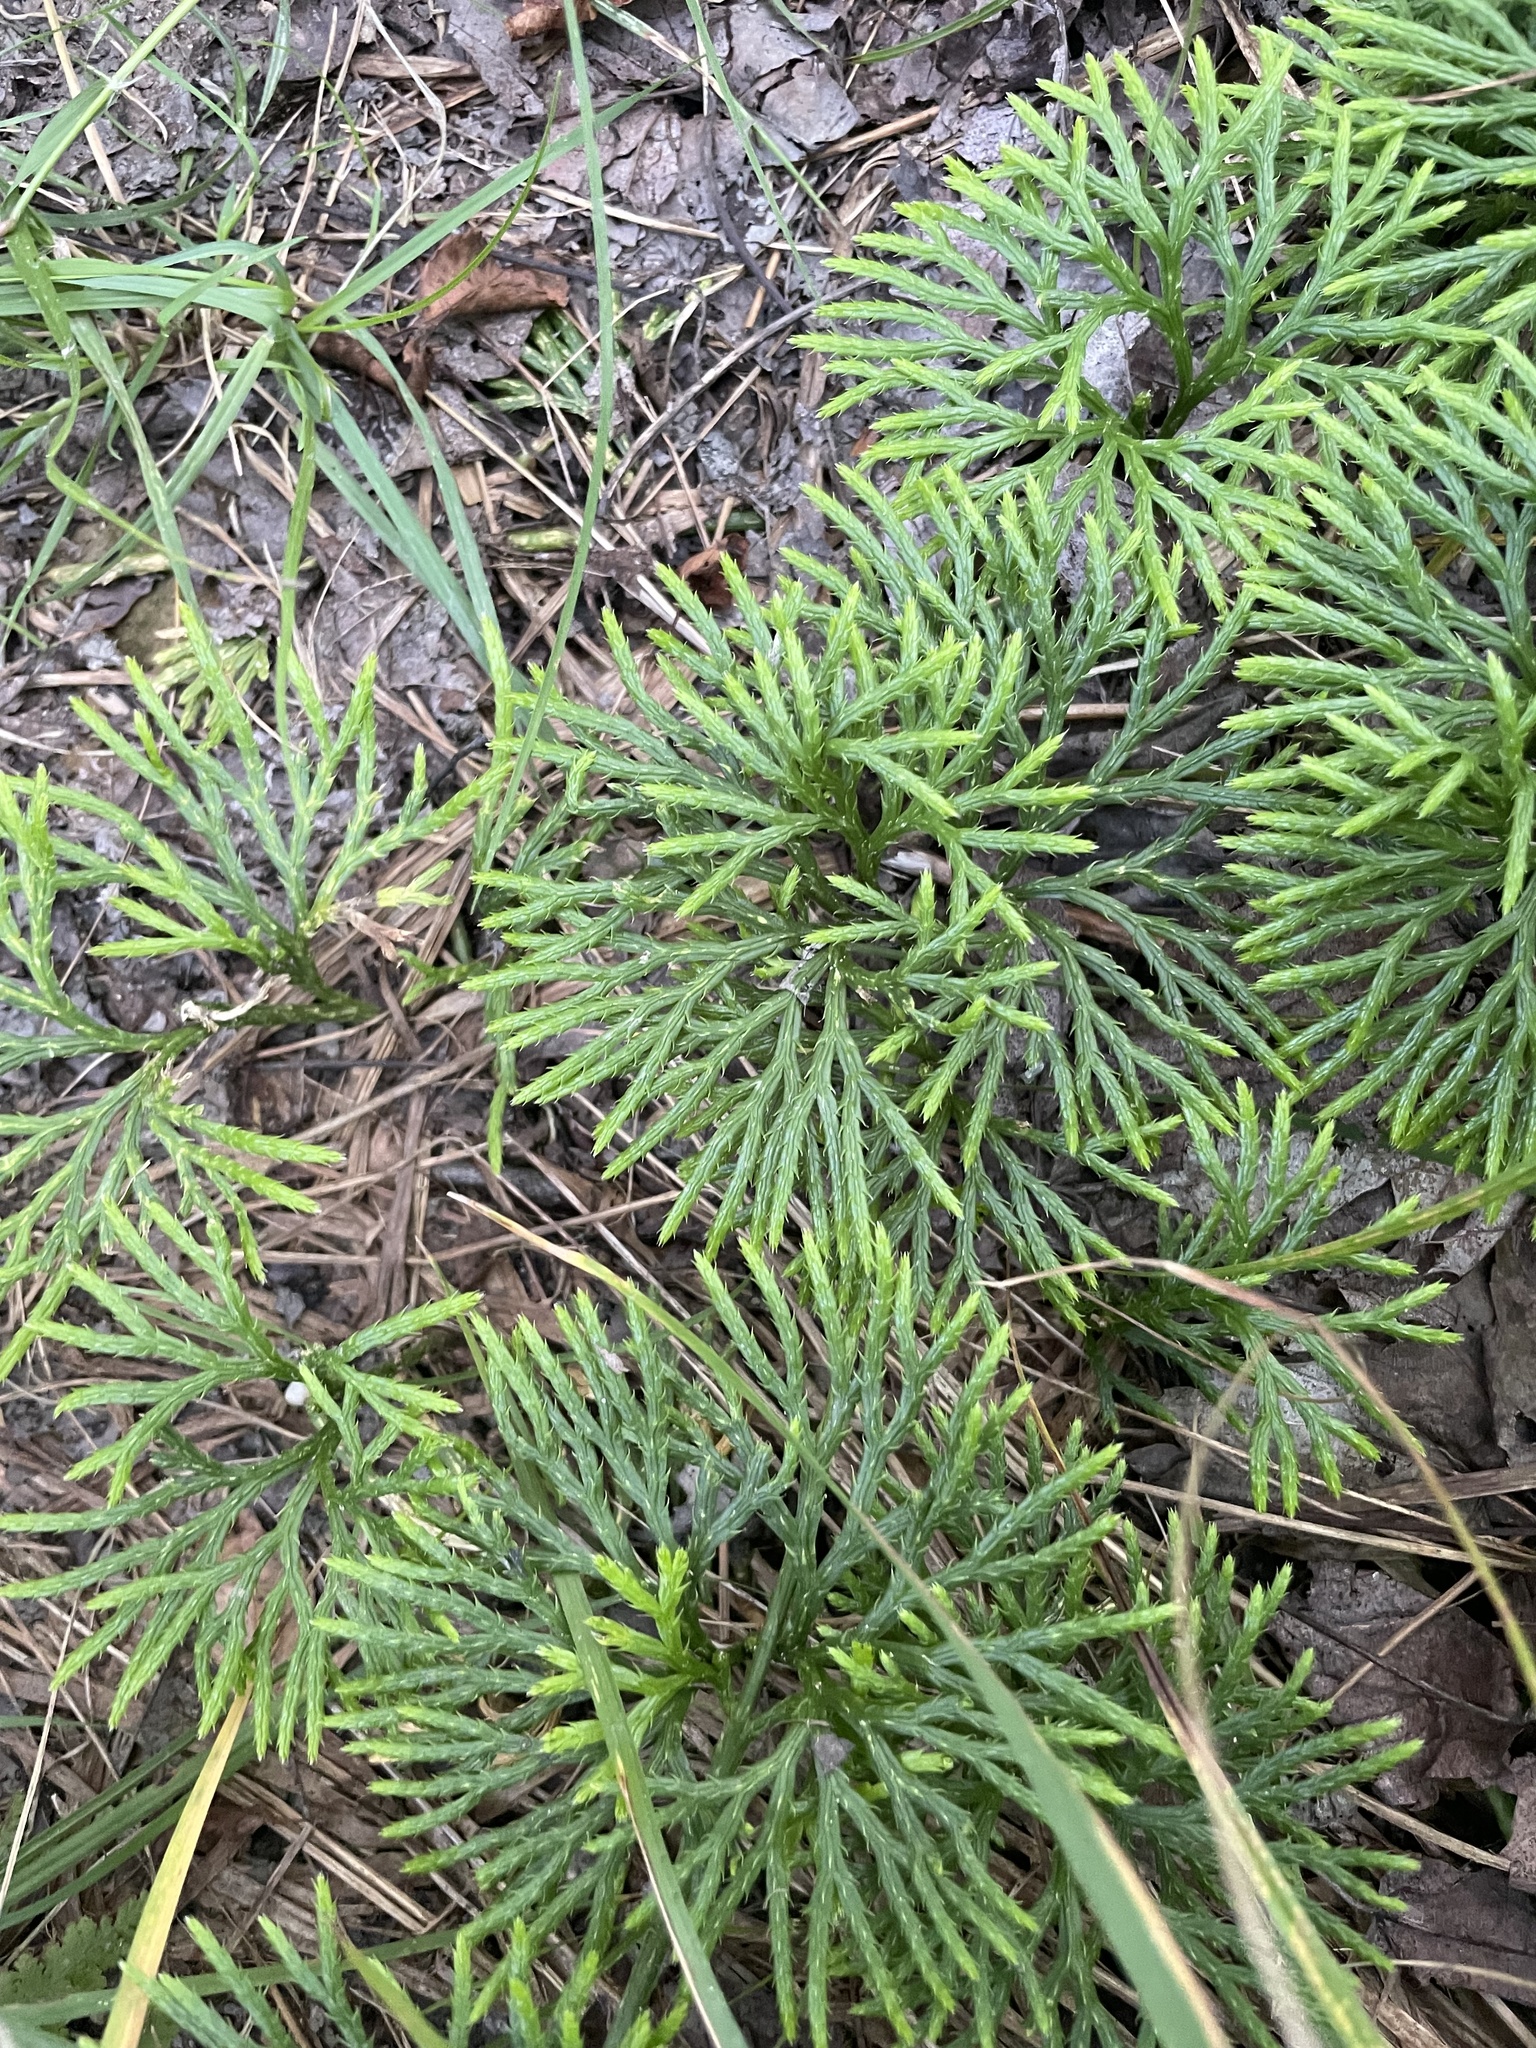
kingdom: Plantae
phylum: Tracheophyta
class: Lycopodiopsida
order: Lycopodiales
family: Lycopodiaceae
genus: Diphasiastrum
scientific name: Diphasiastrum digitatum
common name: Southern running-pine
